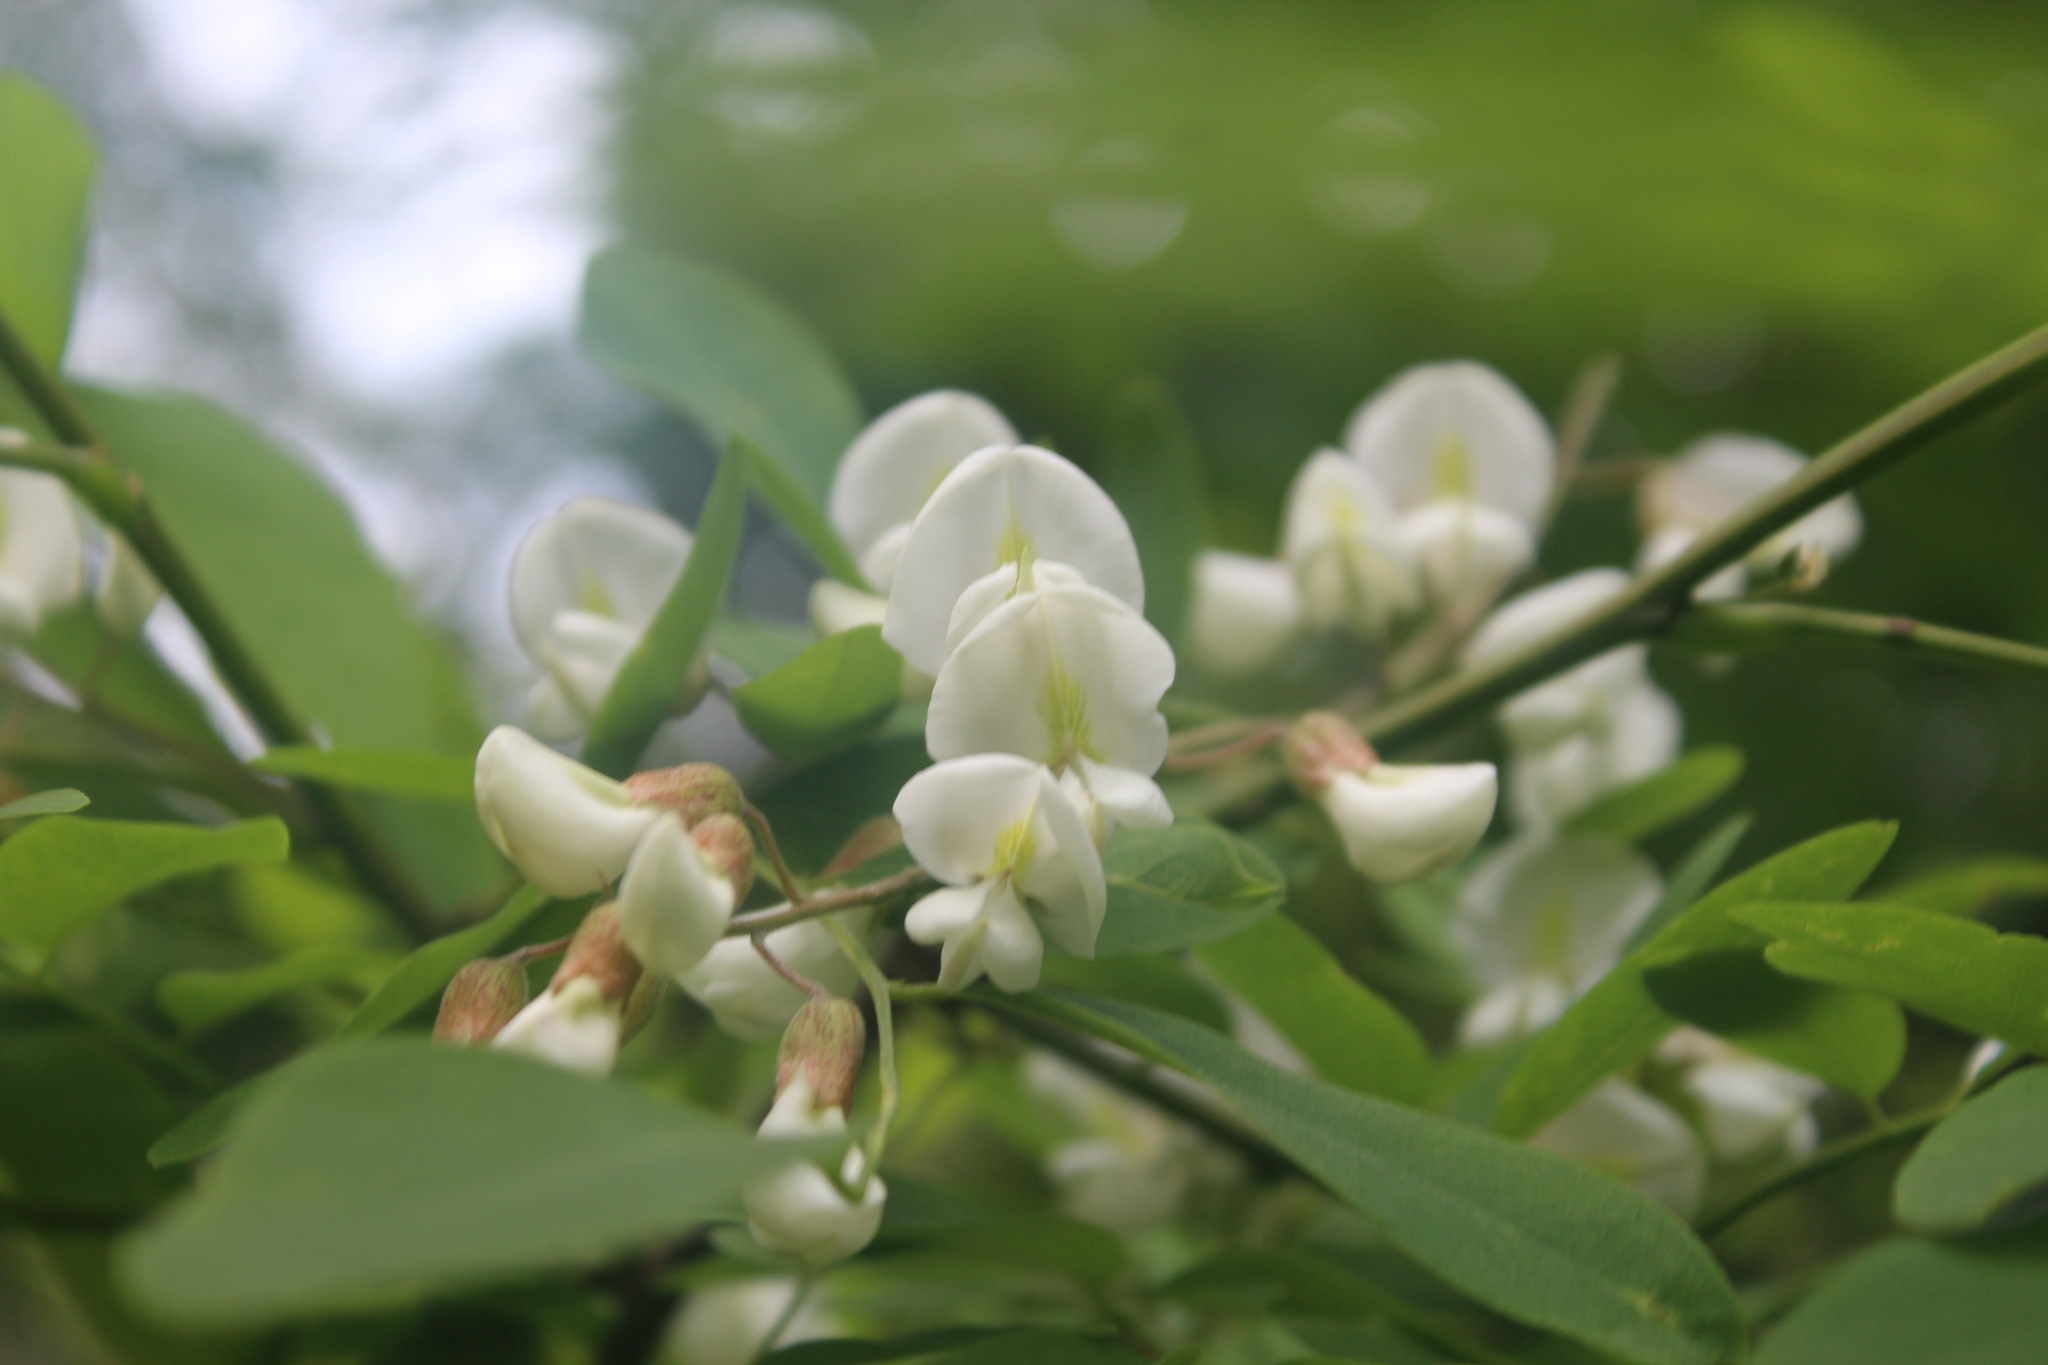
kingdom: Plantae
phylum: Tracheophyta
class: Magnoliopsida
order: Fabales
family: Fabaceae
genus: Robinia
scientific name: Robinia pseudoacacia
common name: Black locust
